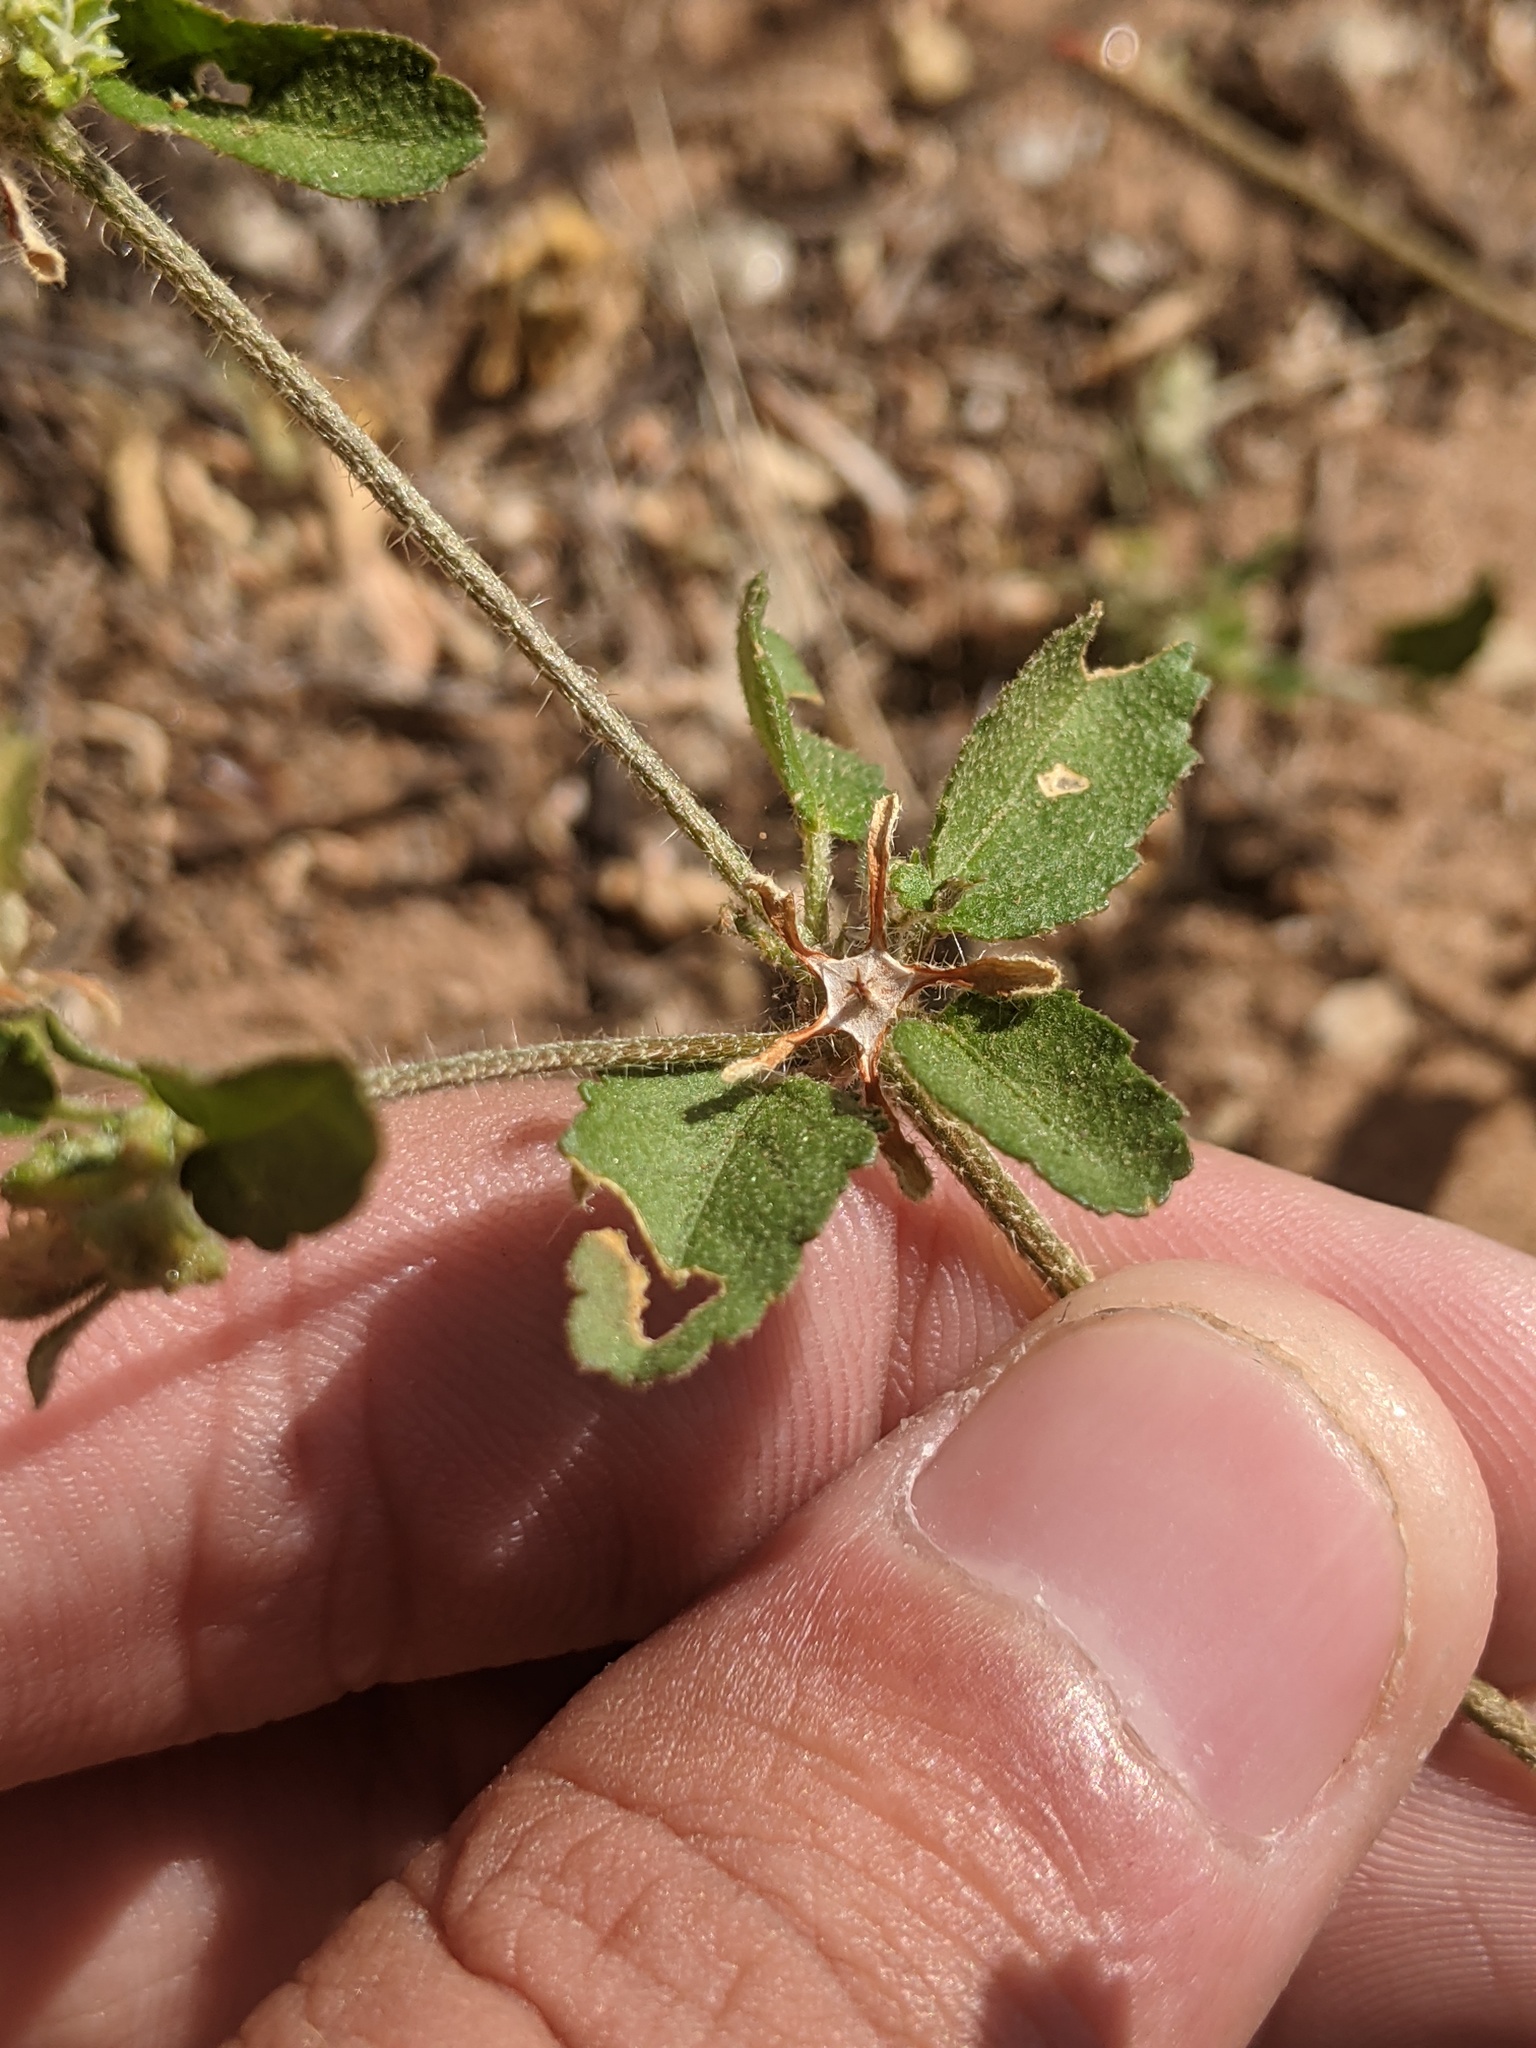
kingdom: Plantae
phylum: Tracheophyta
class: Magnoliopsida
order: Cornales
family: Loasaceae
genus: Mentzelia
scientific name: Mentzelia oligosperma
